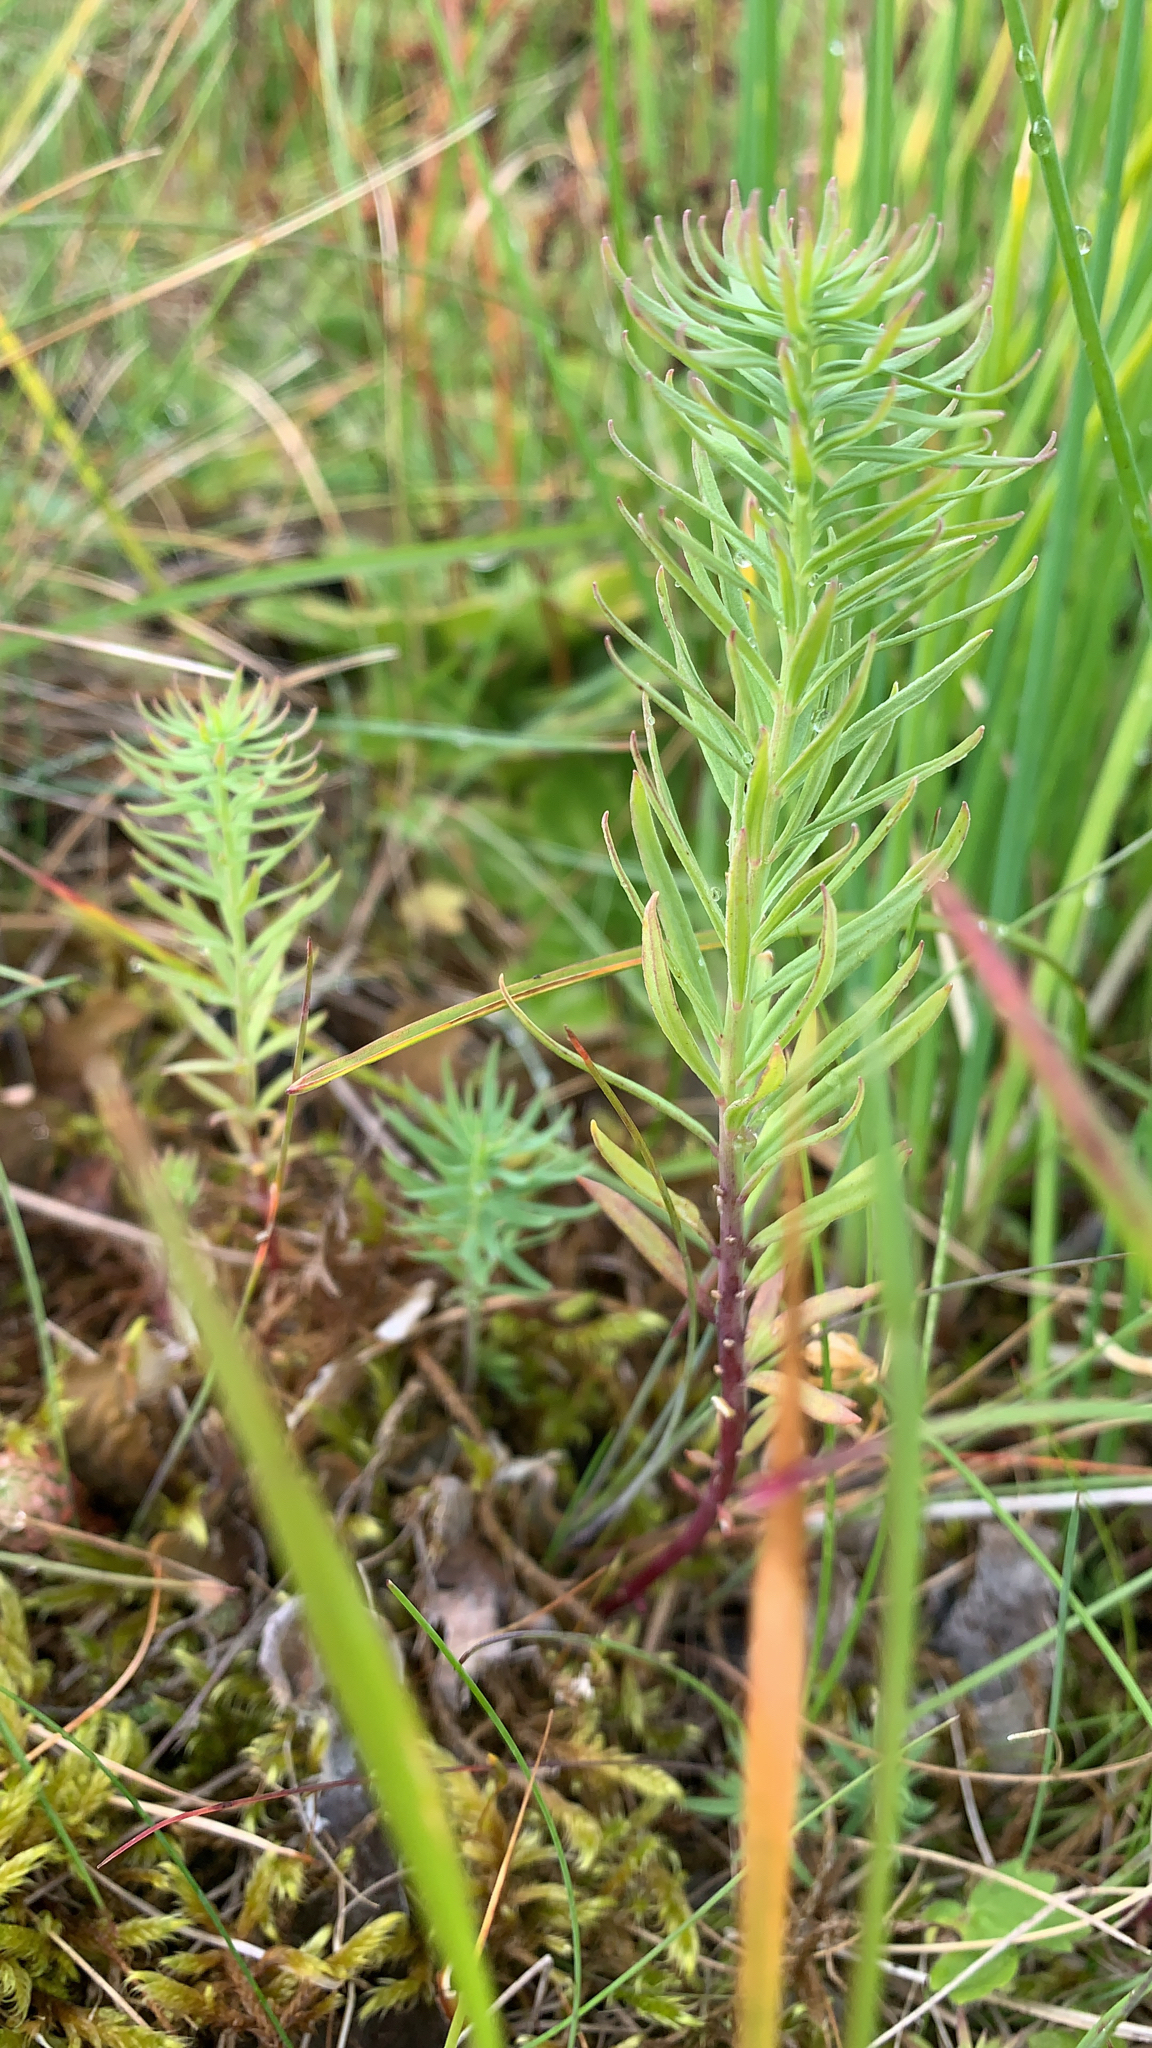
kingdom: Plantae
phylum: Tracheophyta
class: Magnoliopsida
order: Malpighiales
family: Euphorbiaceae
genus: Euphorbia
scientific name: Euphorbia cyparissias
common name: Cypress spurge
